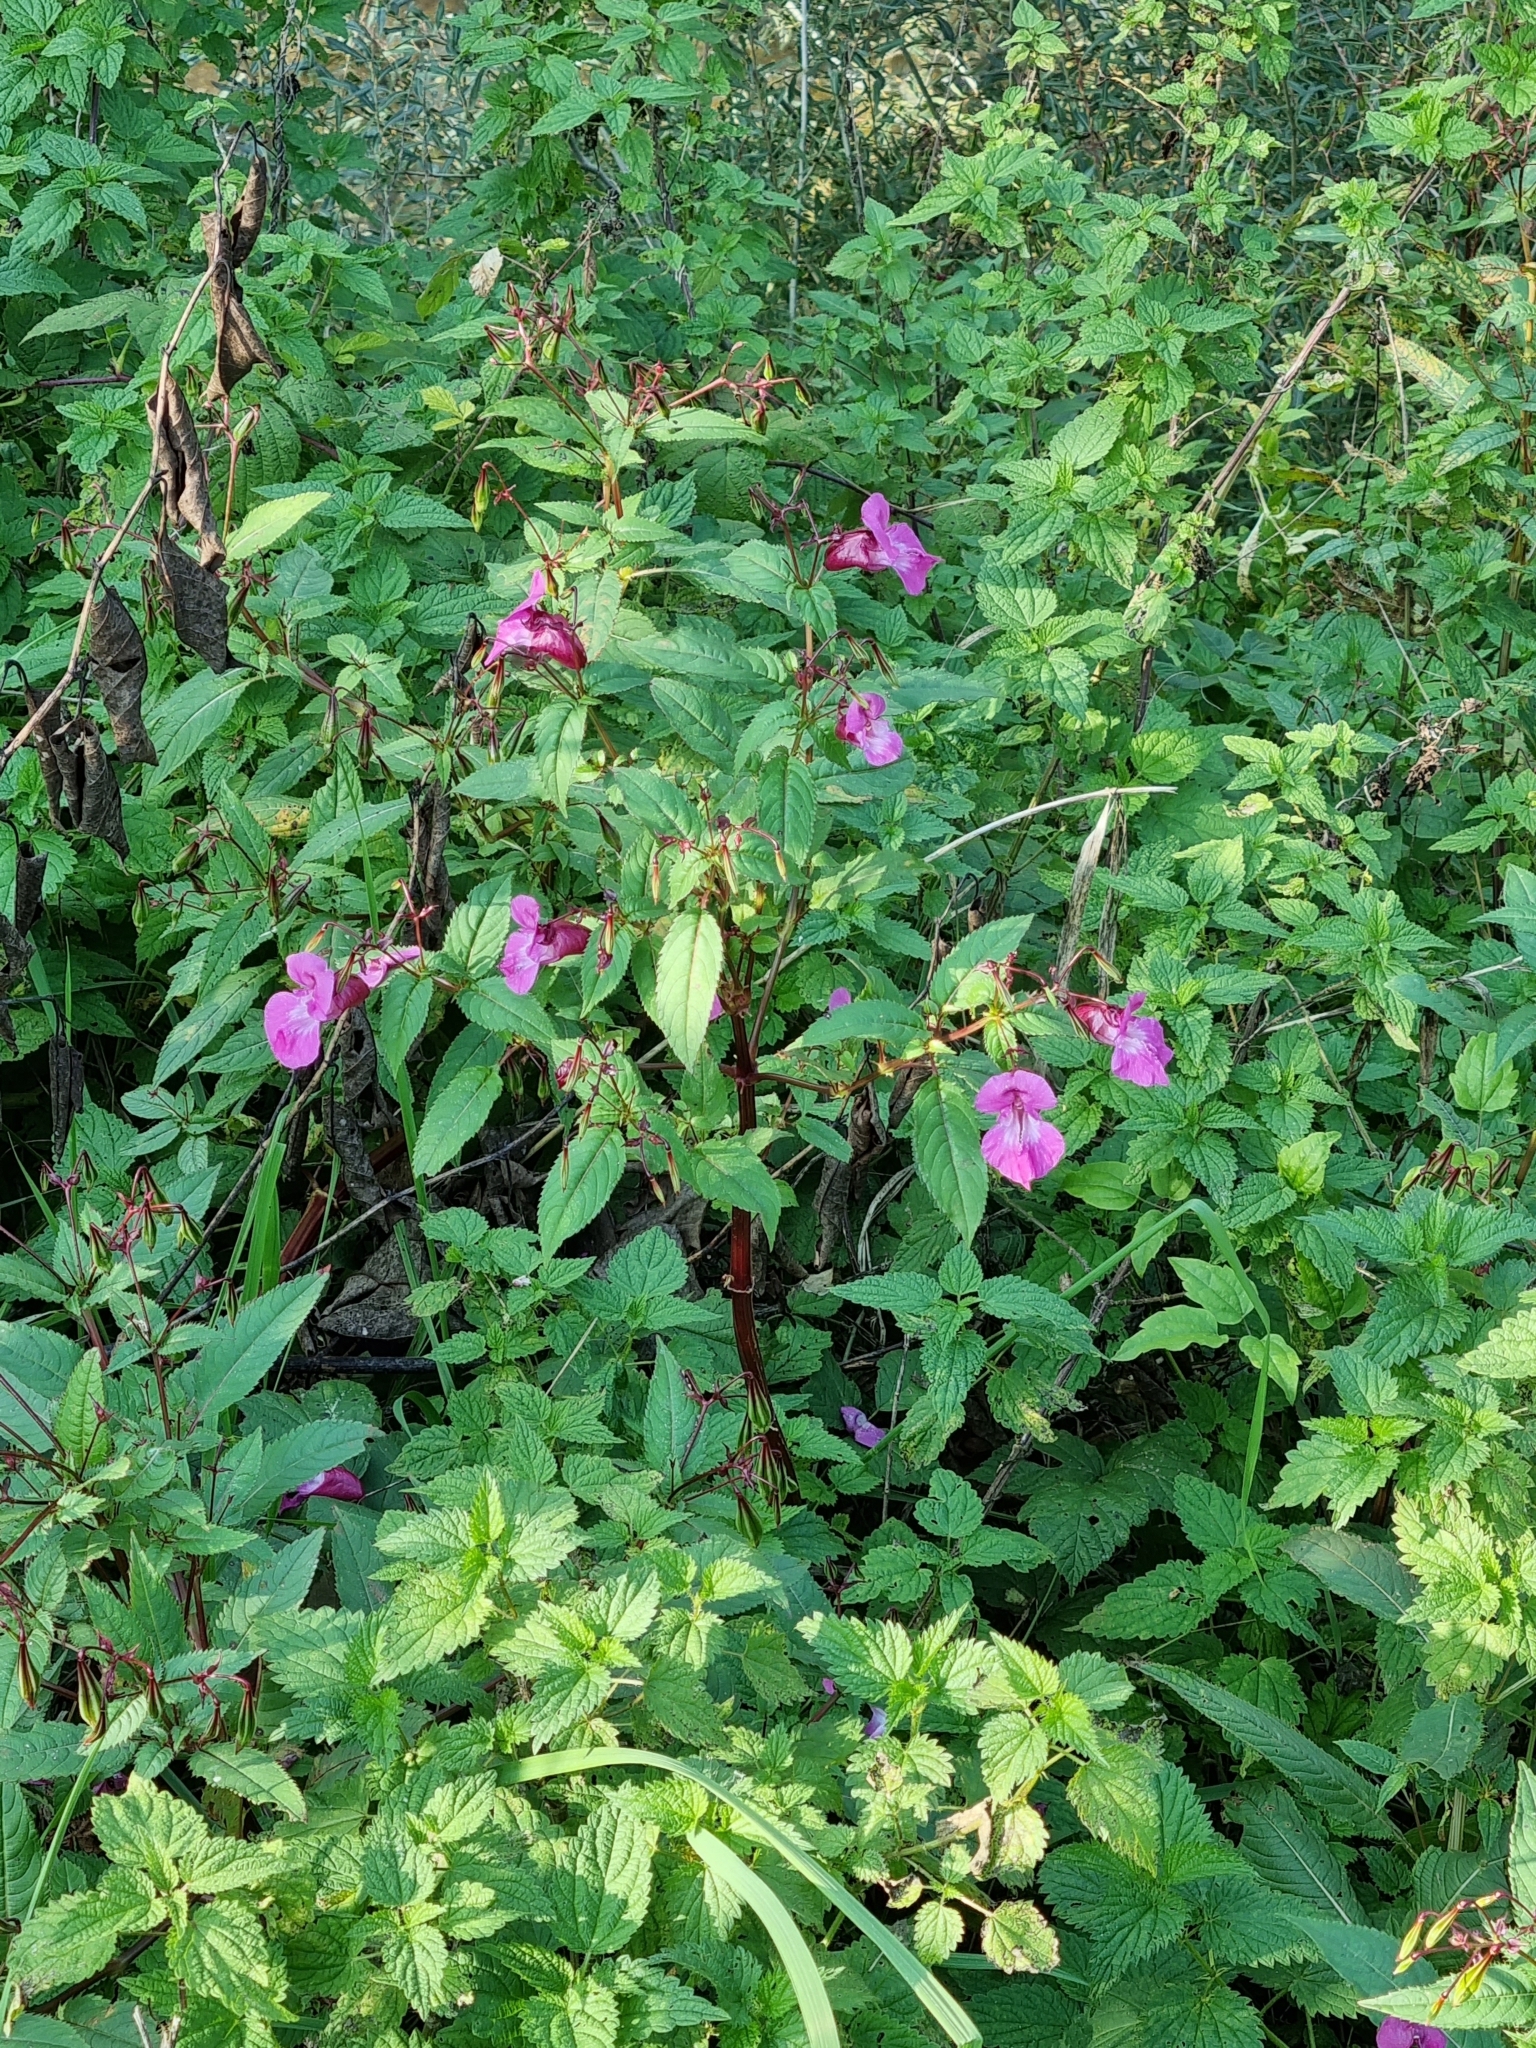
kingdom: Plantae
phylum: Tracheophyta
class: Magnoliopsida
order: Ericales
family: Balsaminaceae
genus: Impatiens
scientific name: Impatiens glandulifera
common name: Himalayan balsam
